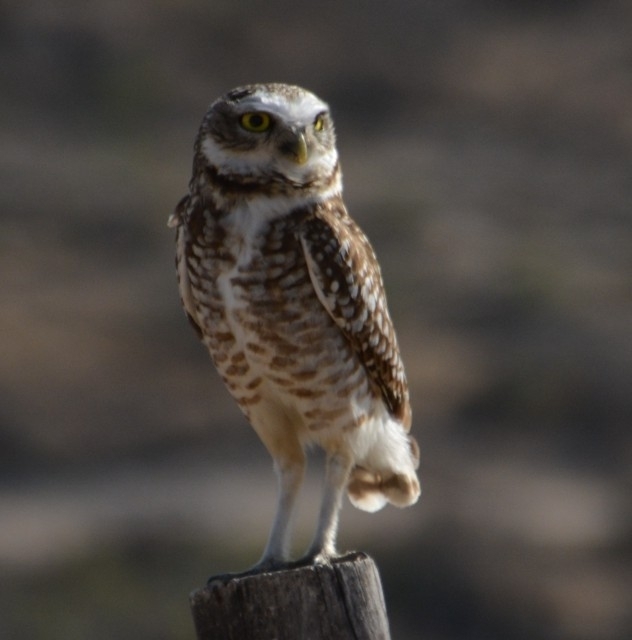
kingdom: Animalia
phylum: Chordata
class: Aves
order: Strigiformes
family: Strigidae
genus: Athene
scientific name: Athene cunicularia
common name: Burrowing owl
